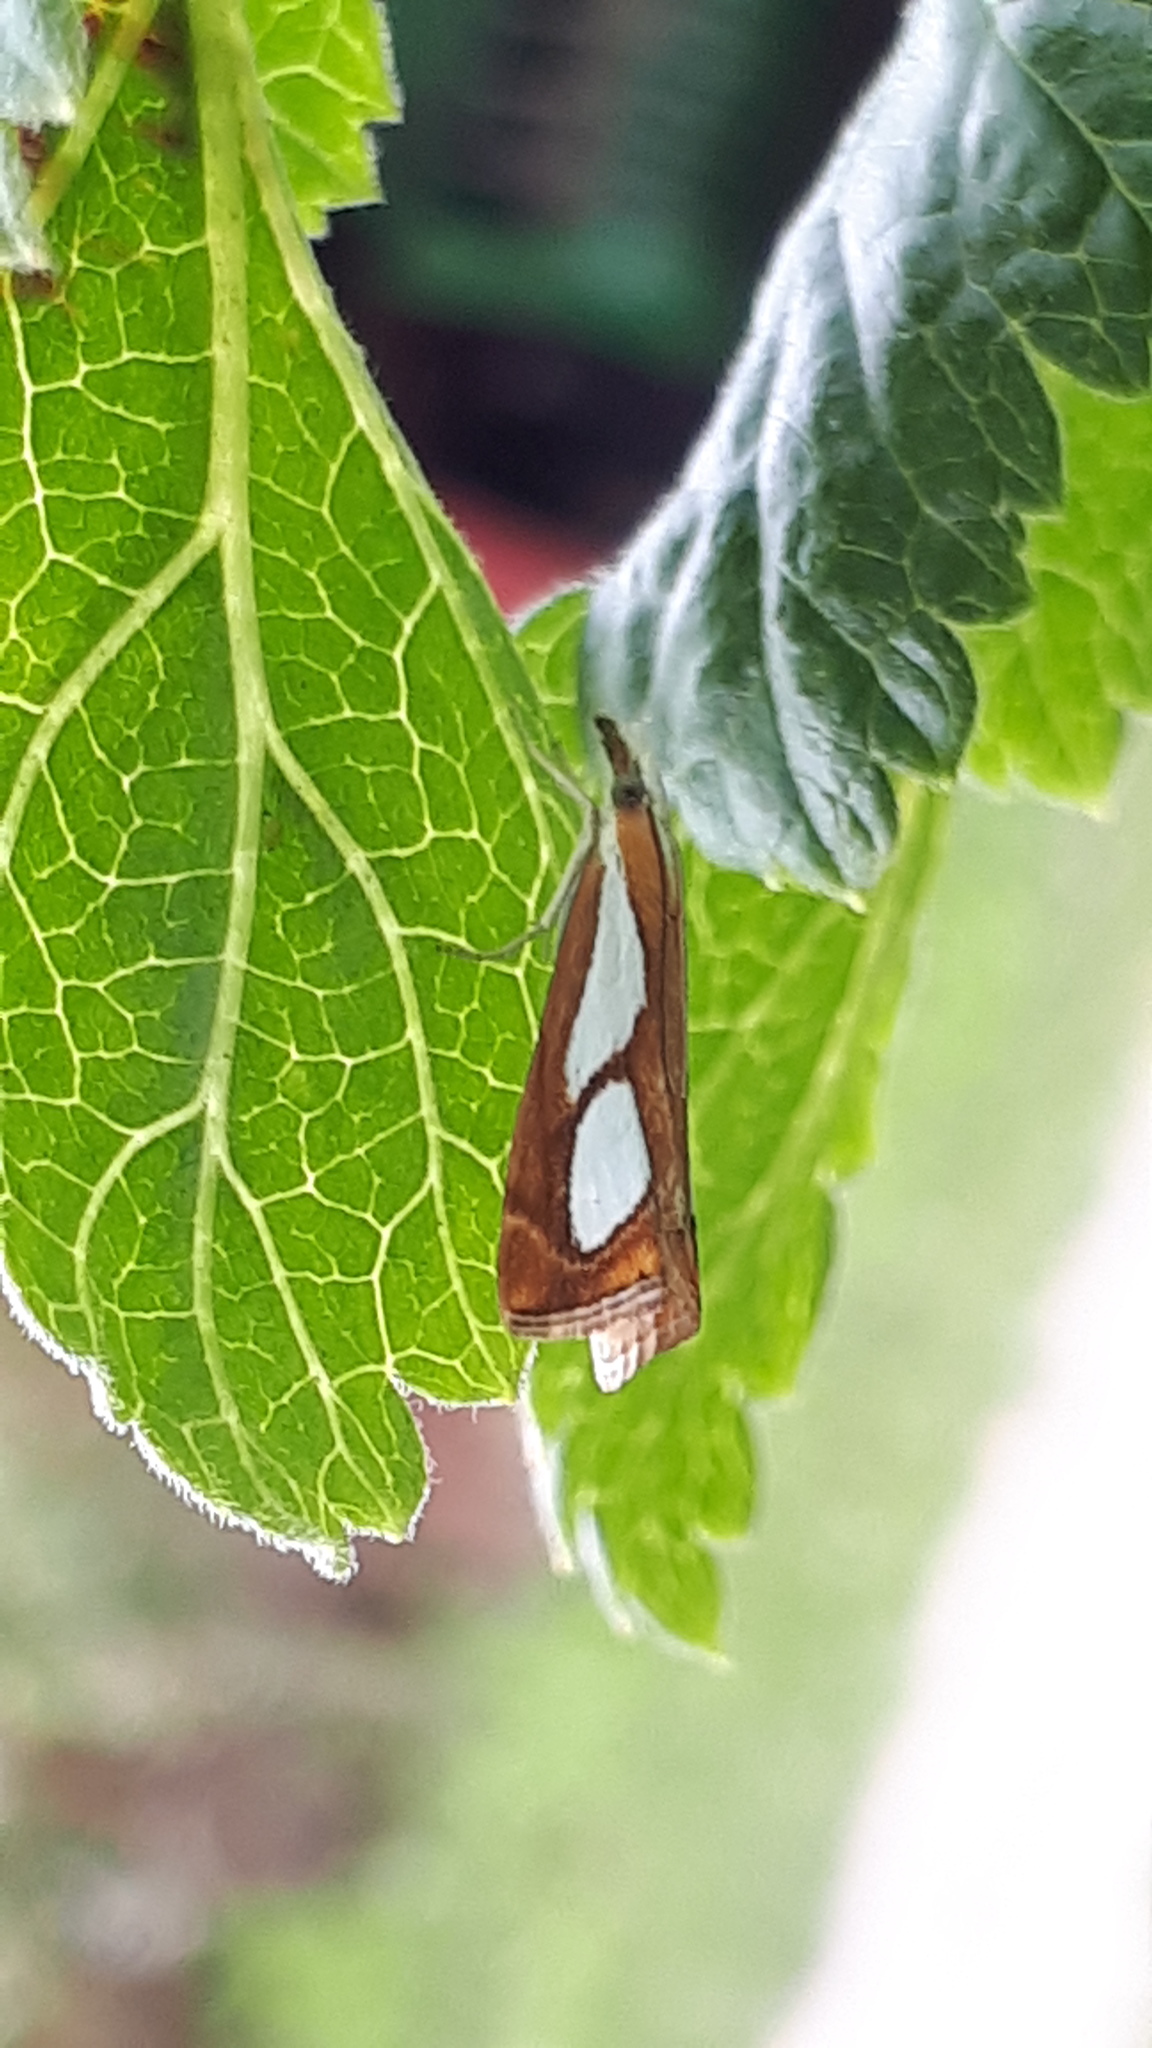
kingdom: Animalia
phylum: Arthropoda
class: Insecta
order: Lepidoptera
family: Crambidae
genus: Catoptria
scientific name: Catoptria pinella
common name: Pearl grass-veneer
